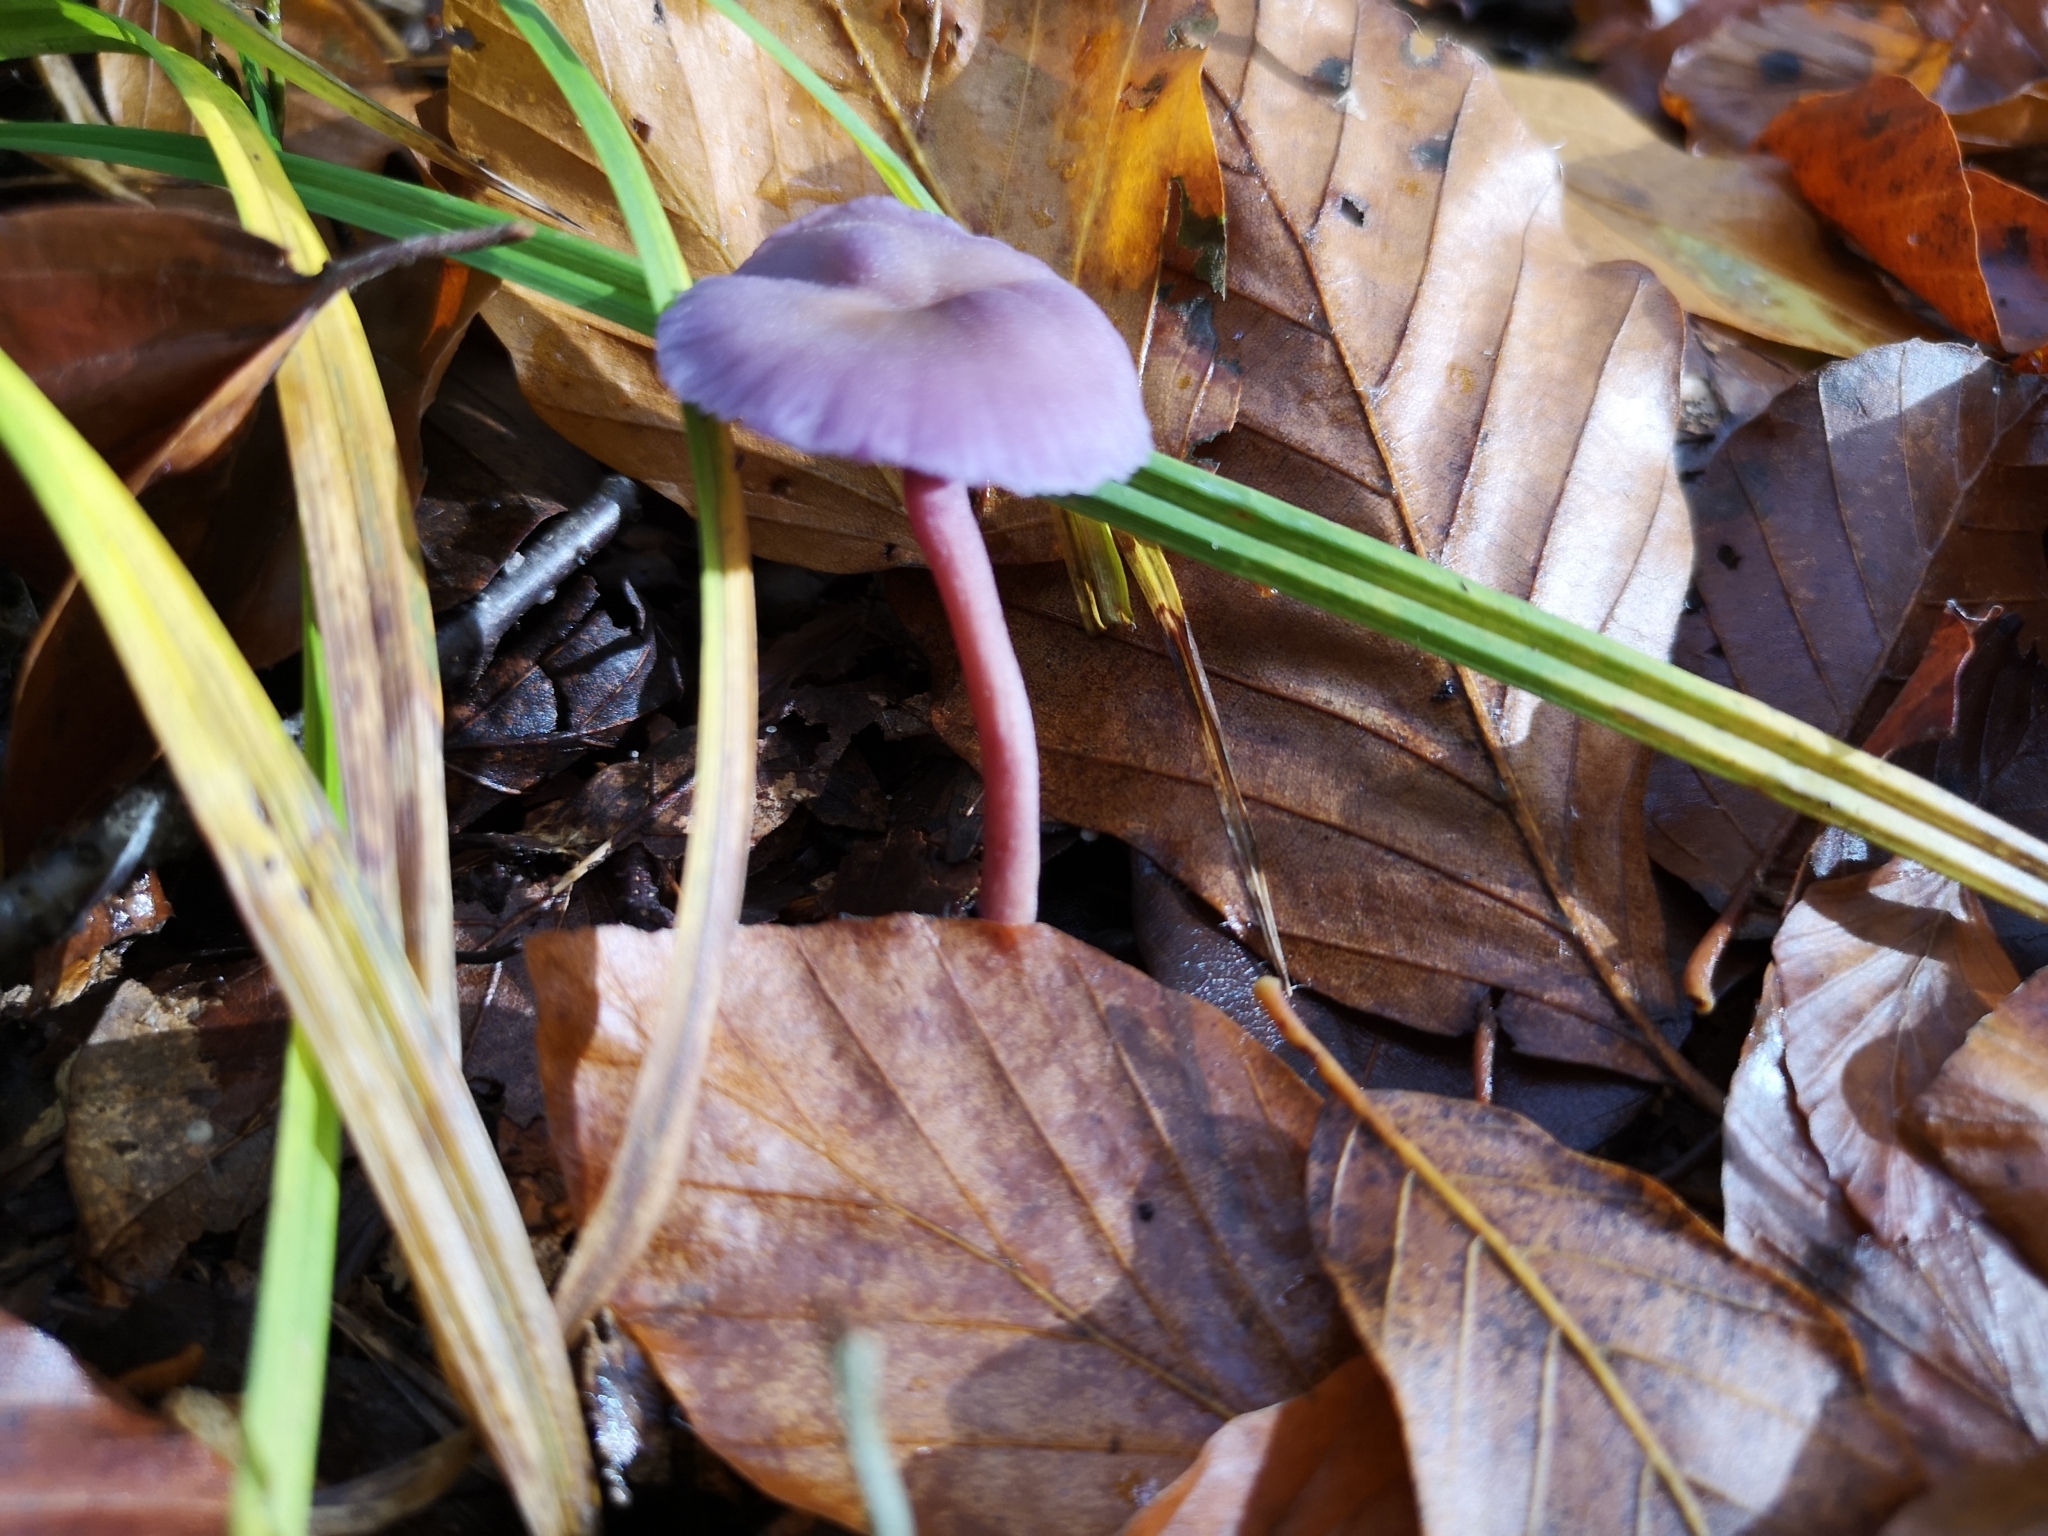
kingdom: Fungi
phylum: Basidiomycota
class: Agaricomycetes
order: Agaricales
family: Hydnangiaceae
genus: Laccaria
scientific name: Laccaria amethystina
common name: Amethyst deceiver
